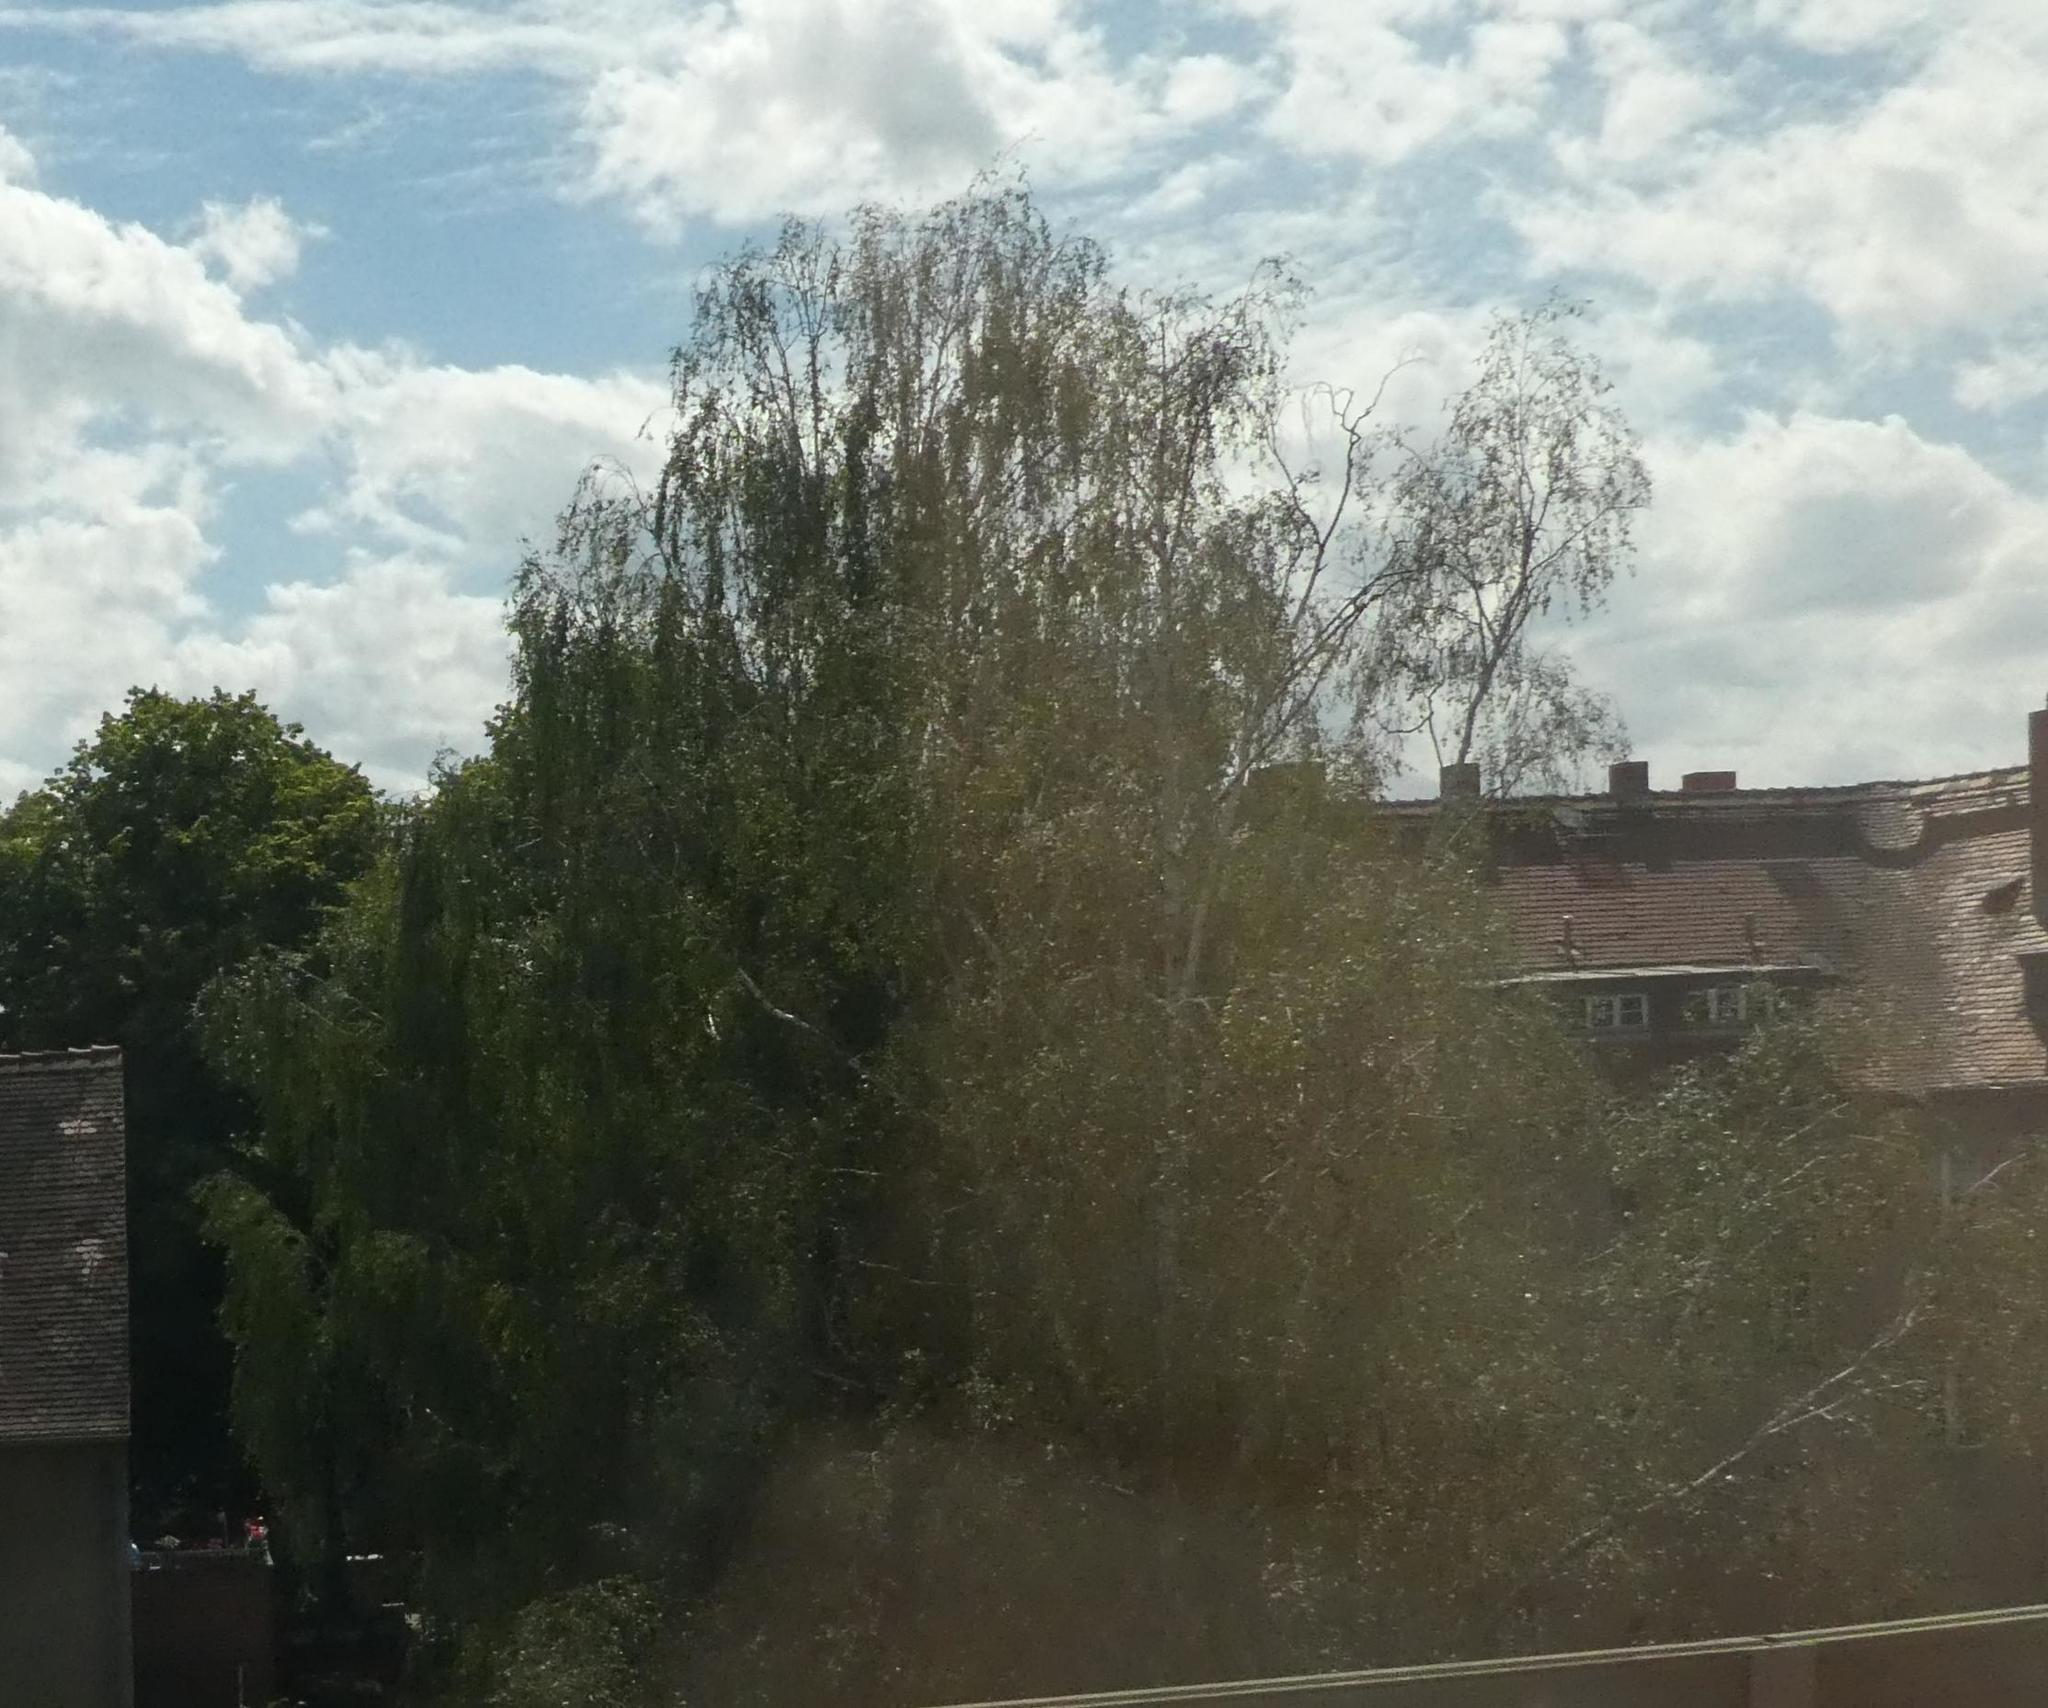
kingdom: Plantae
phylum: Tracheophyta
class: Magnoliopsida
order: Fagales
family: Betulaceae
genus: Betula
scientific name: Betula pendula
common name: Silver birch
